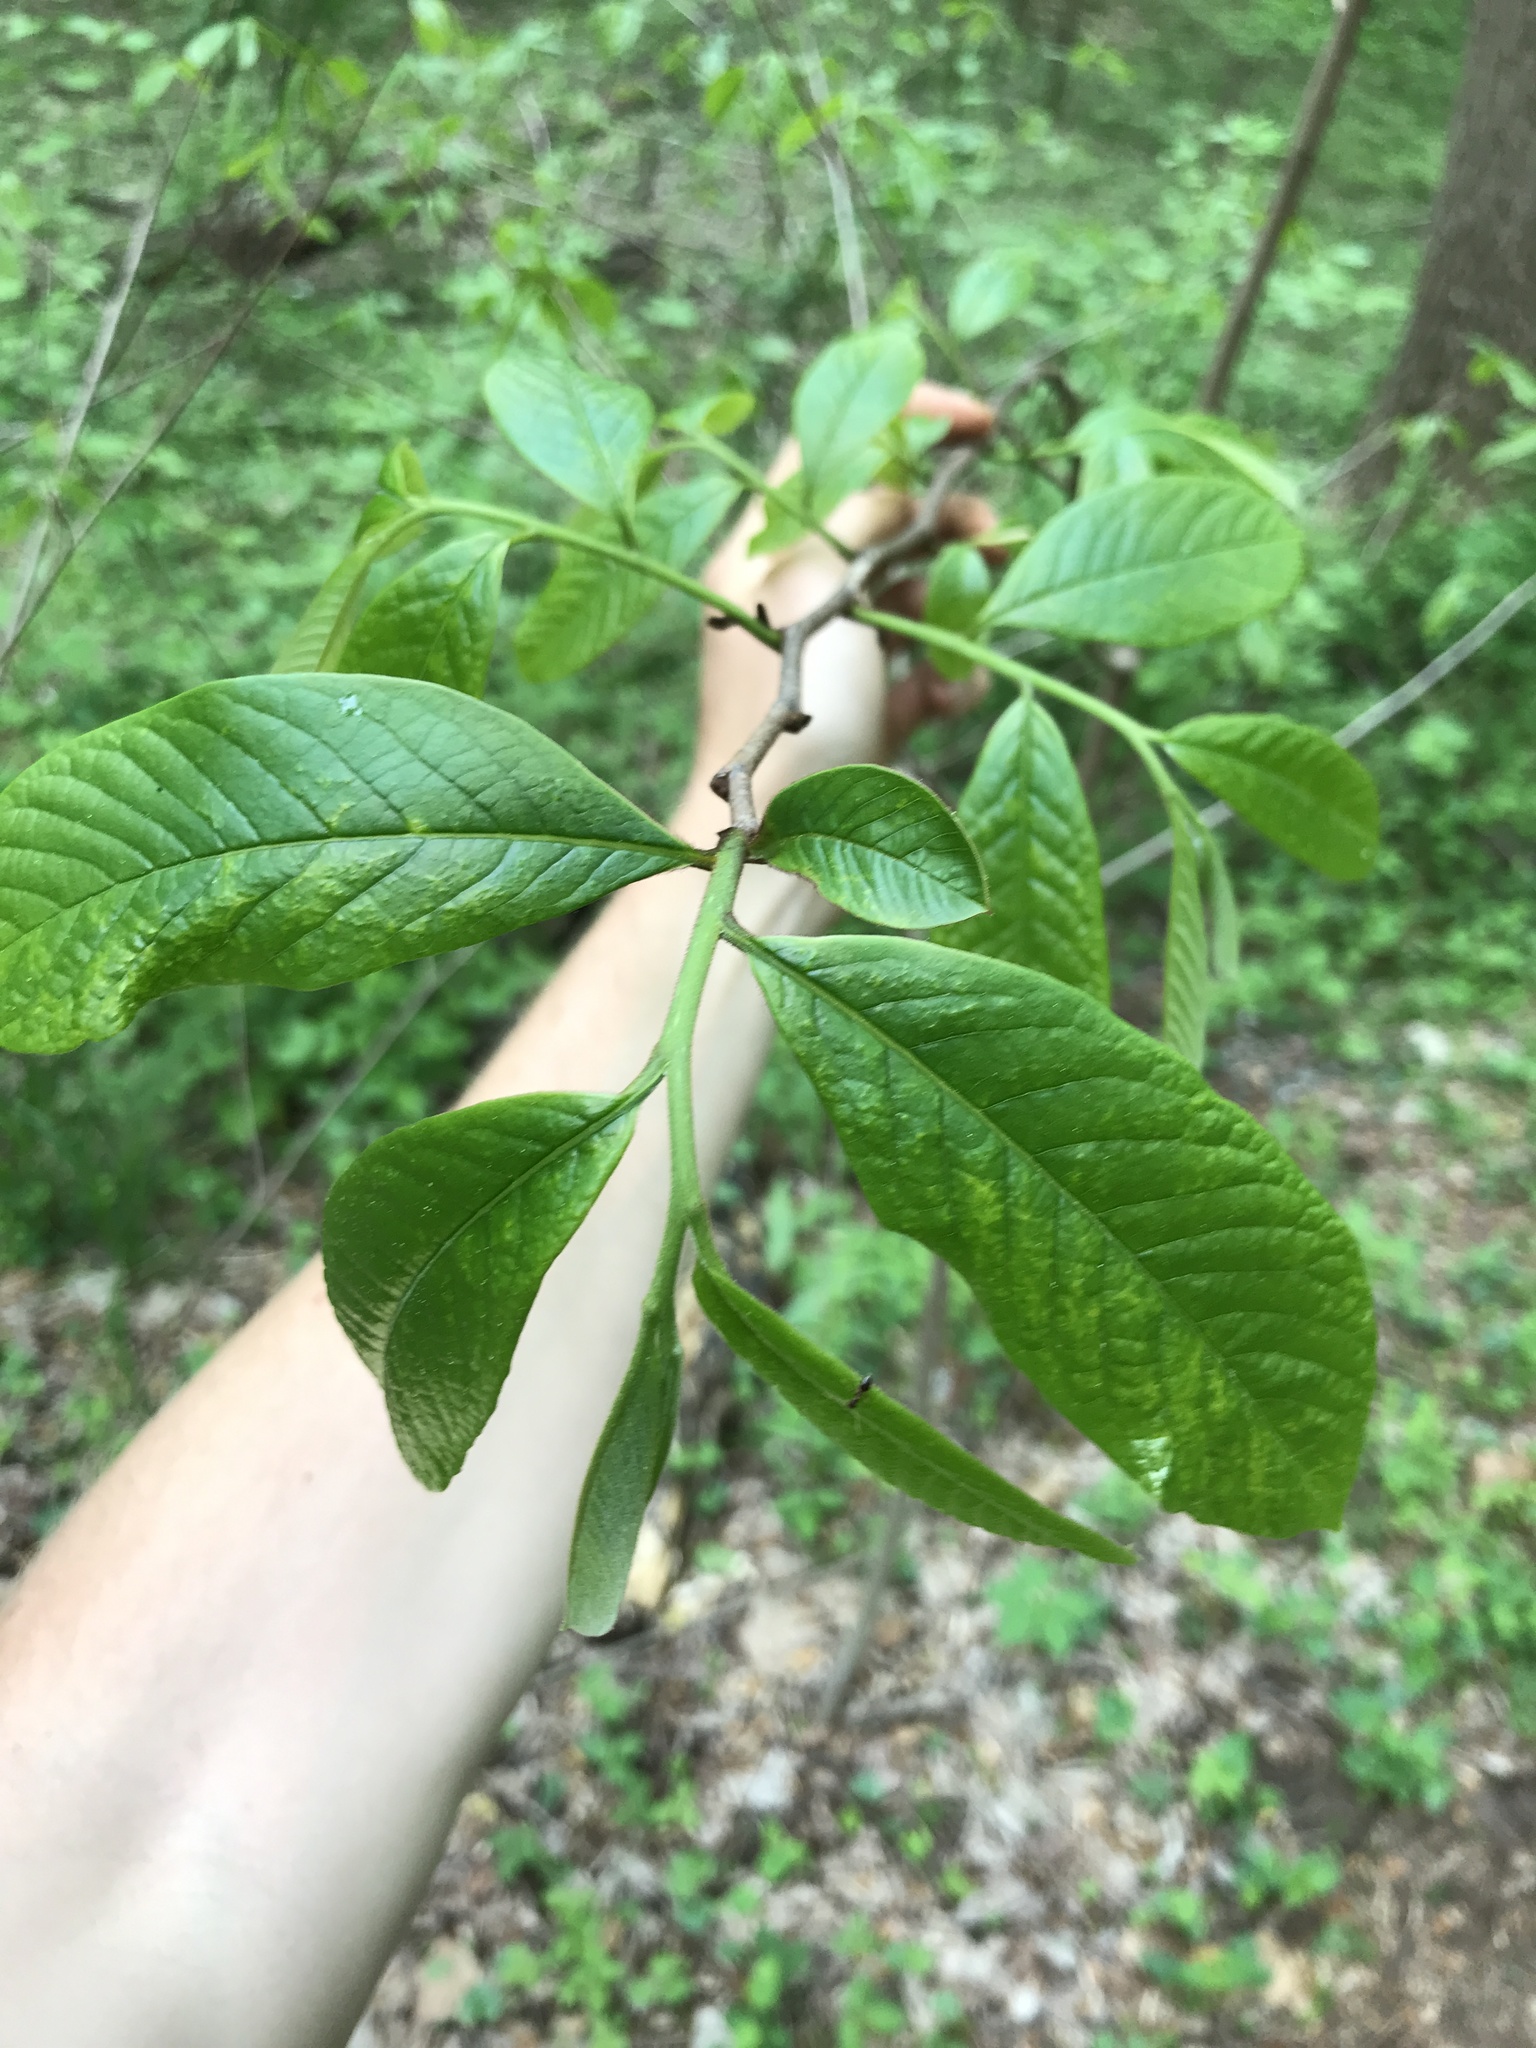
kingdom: Plantae
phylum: Tracheophyta
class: Magnoliopsida
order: Magnoliales
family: Annonaceae
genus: Asimina
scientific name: Asimina triloba
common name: Dog-banana
